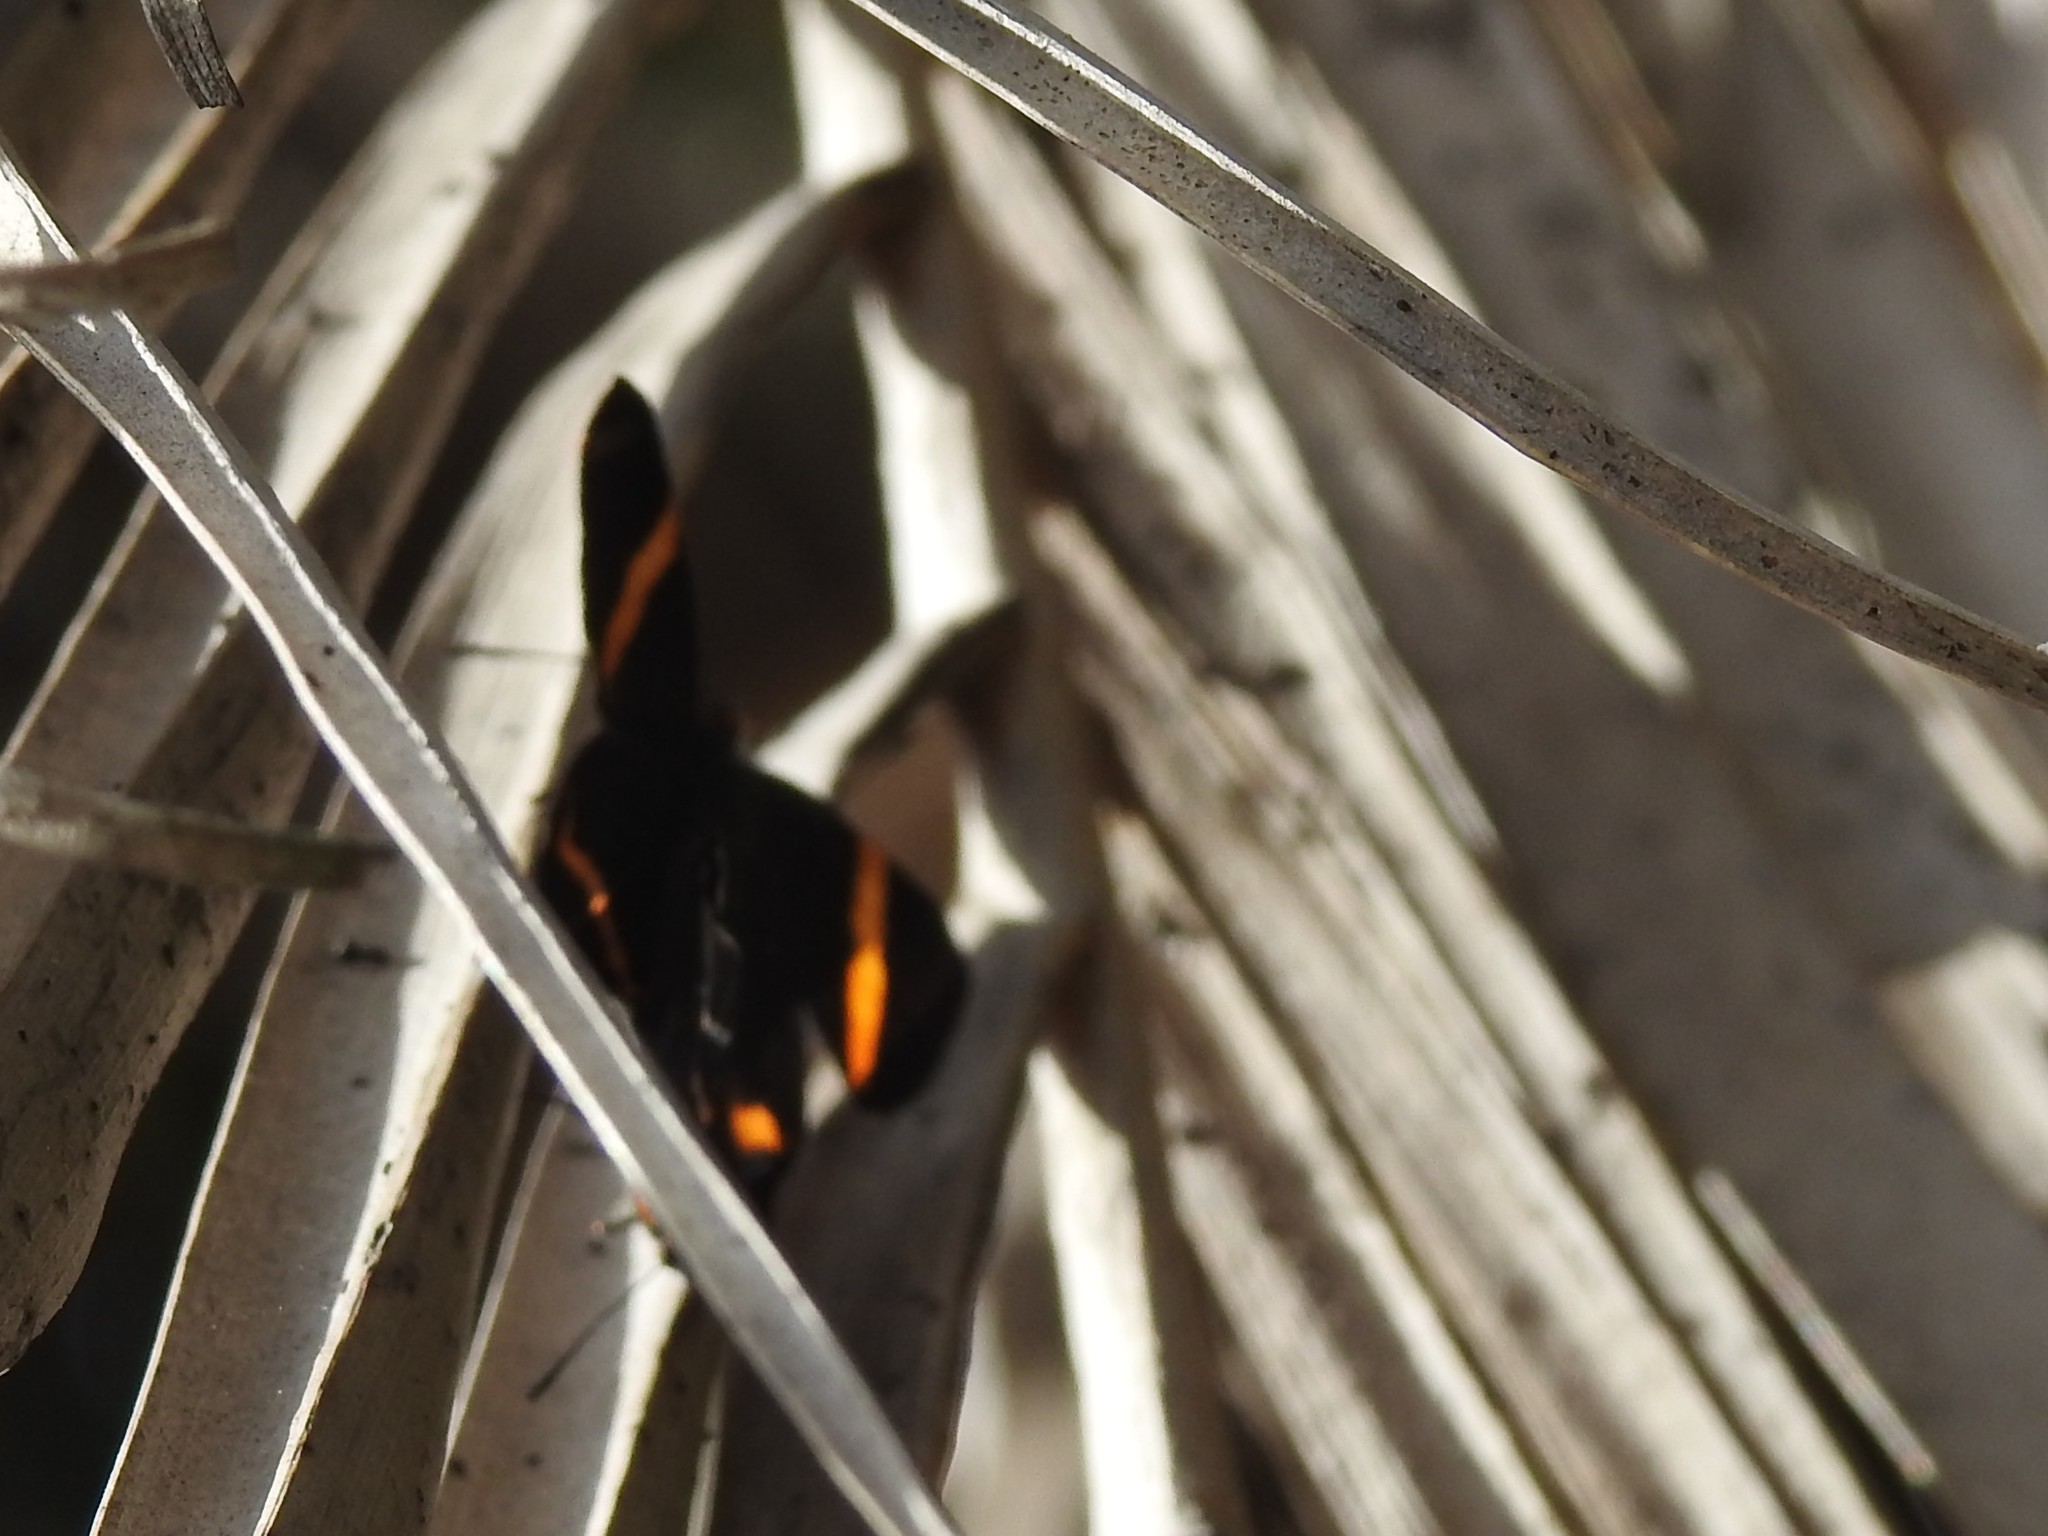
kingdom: Animalia
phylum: Arthropoda
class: Insecta
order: Lepidoptera
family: Riodinidae
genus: Riodina
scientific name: Riodina lysippoides
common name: Little dancer metalmark
